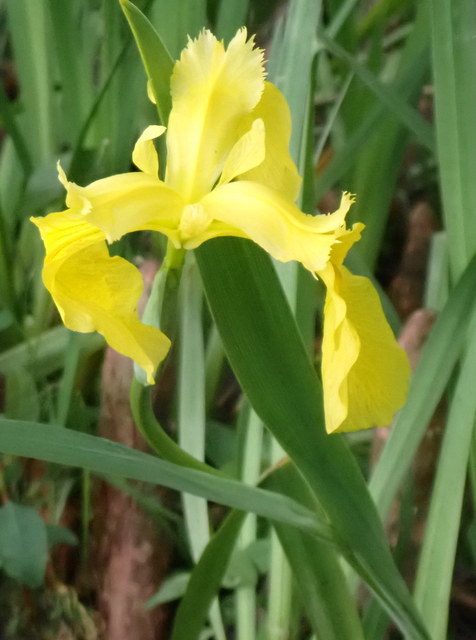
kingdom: Plantae
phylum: Tracheophyta
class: Liliopsida
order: Asparagales
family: Iridaceae
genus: Iris
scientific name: Iris pseudacorus
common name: Yellow flag
